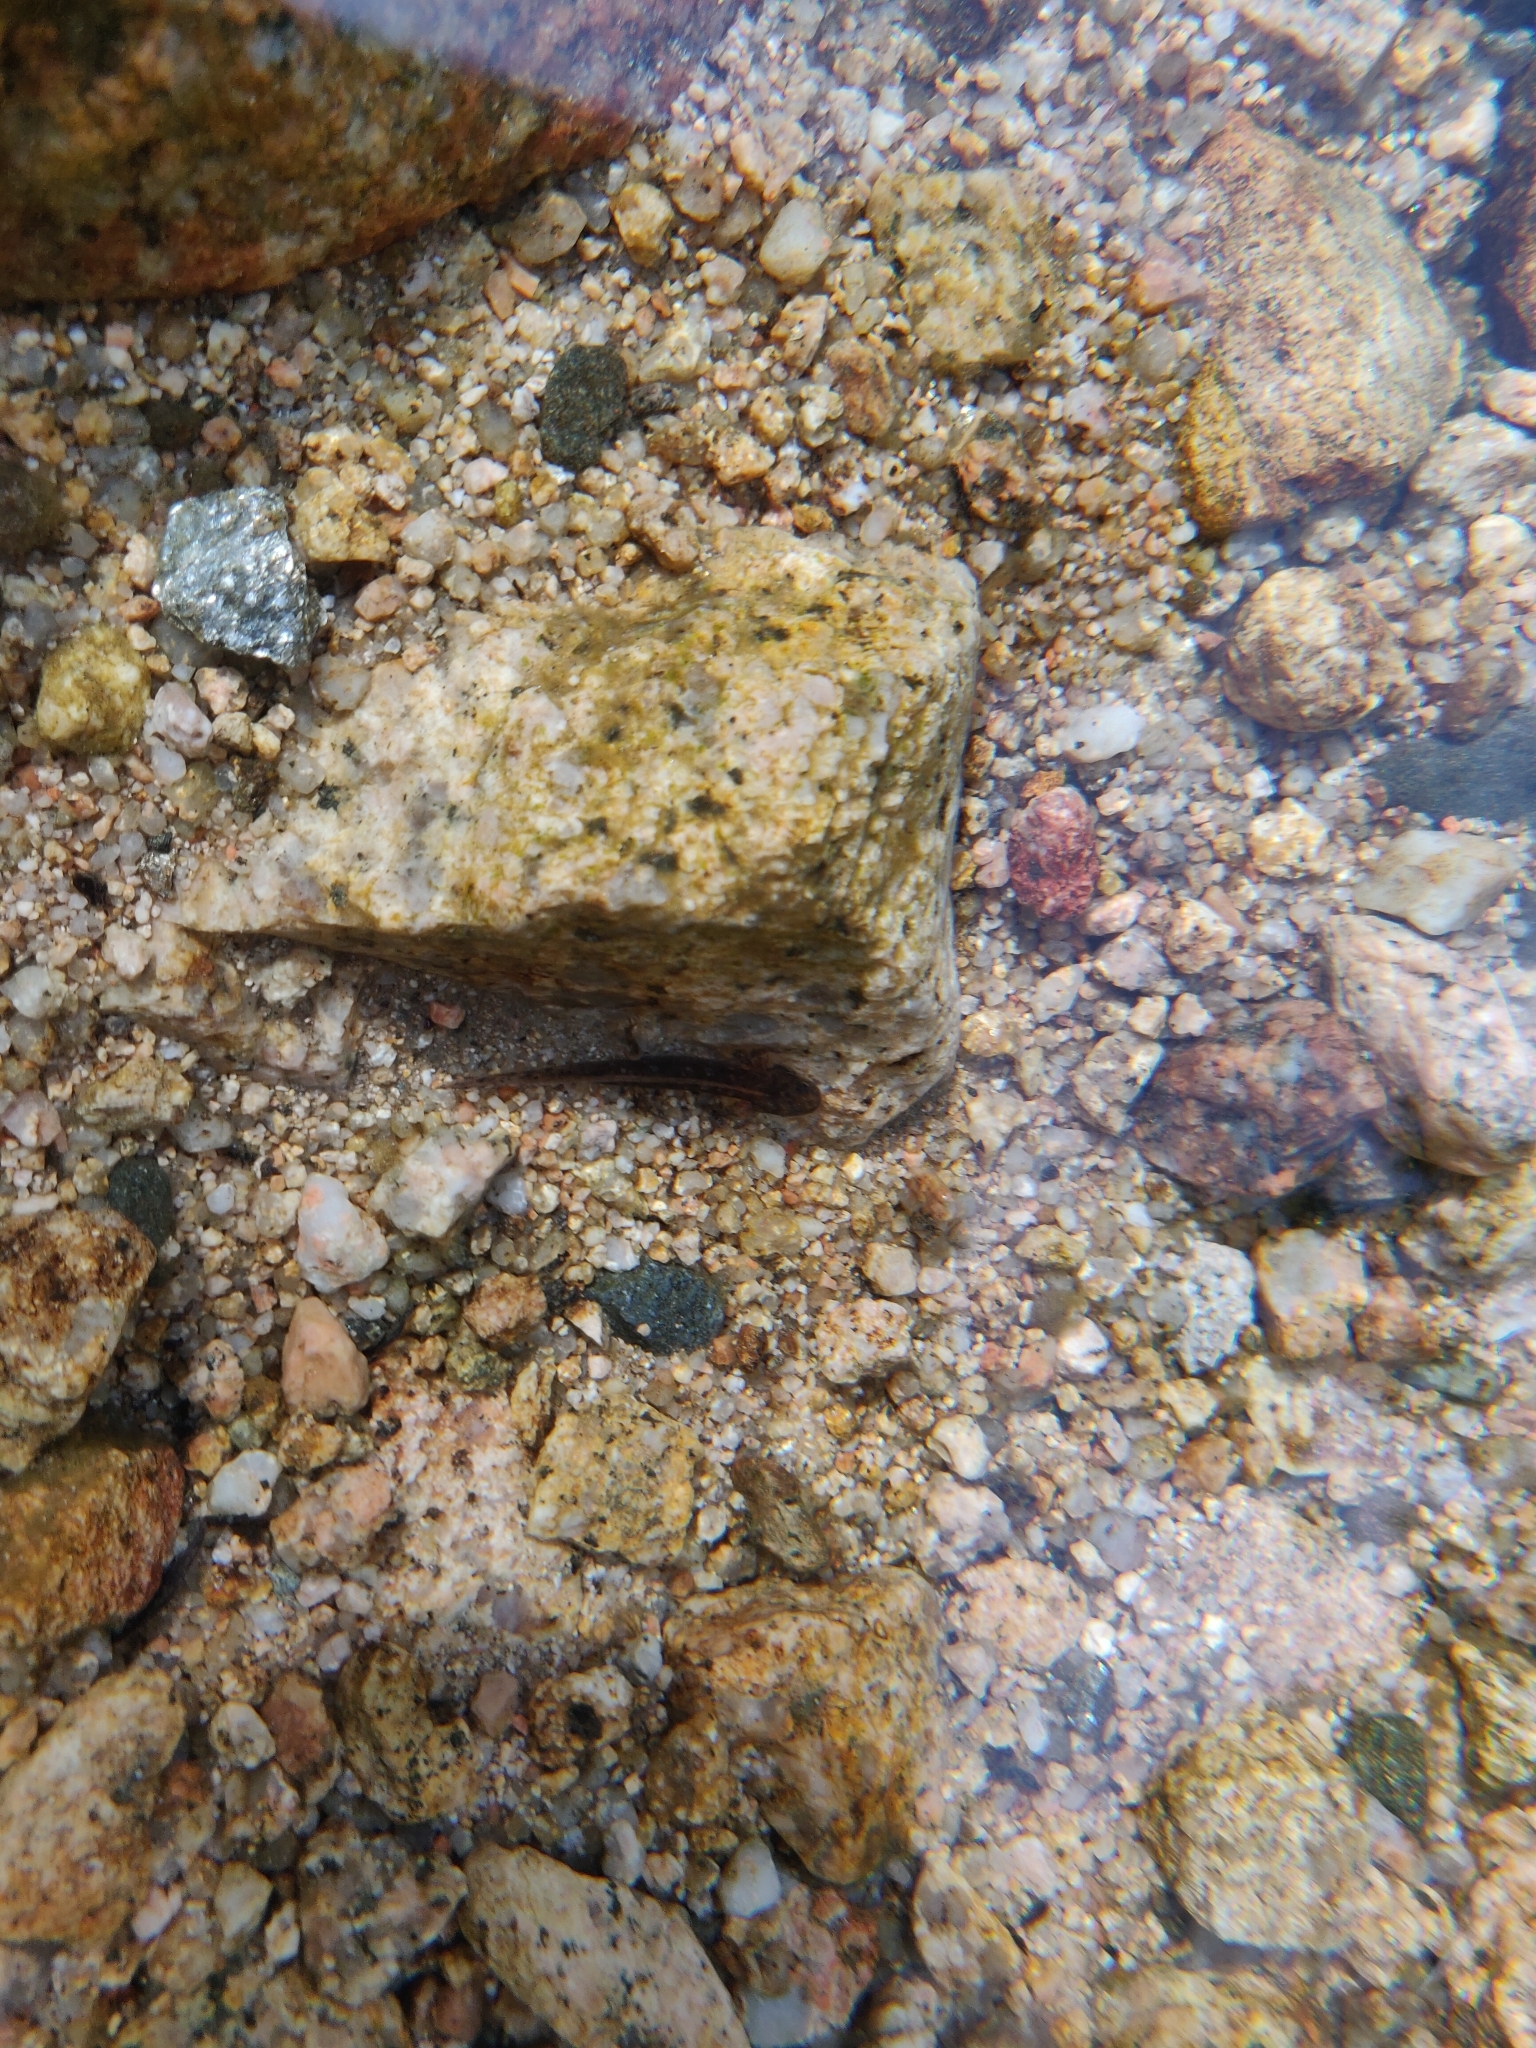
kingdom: Animalia
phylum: Chordata
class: Amphibia
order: Caudata
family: Salamandridae
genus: Euproctus
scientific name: Euproctus platycephalus
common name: Sardinian brook salamander
